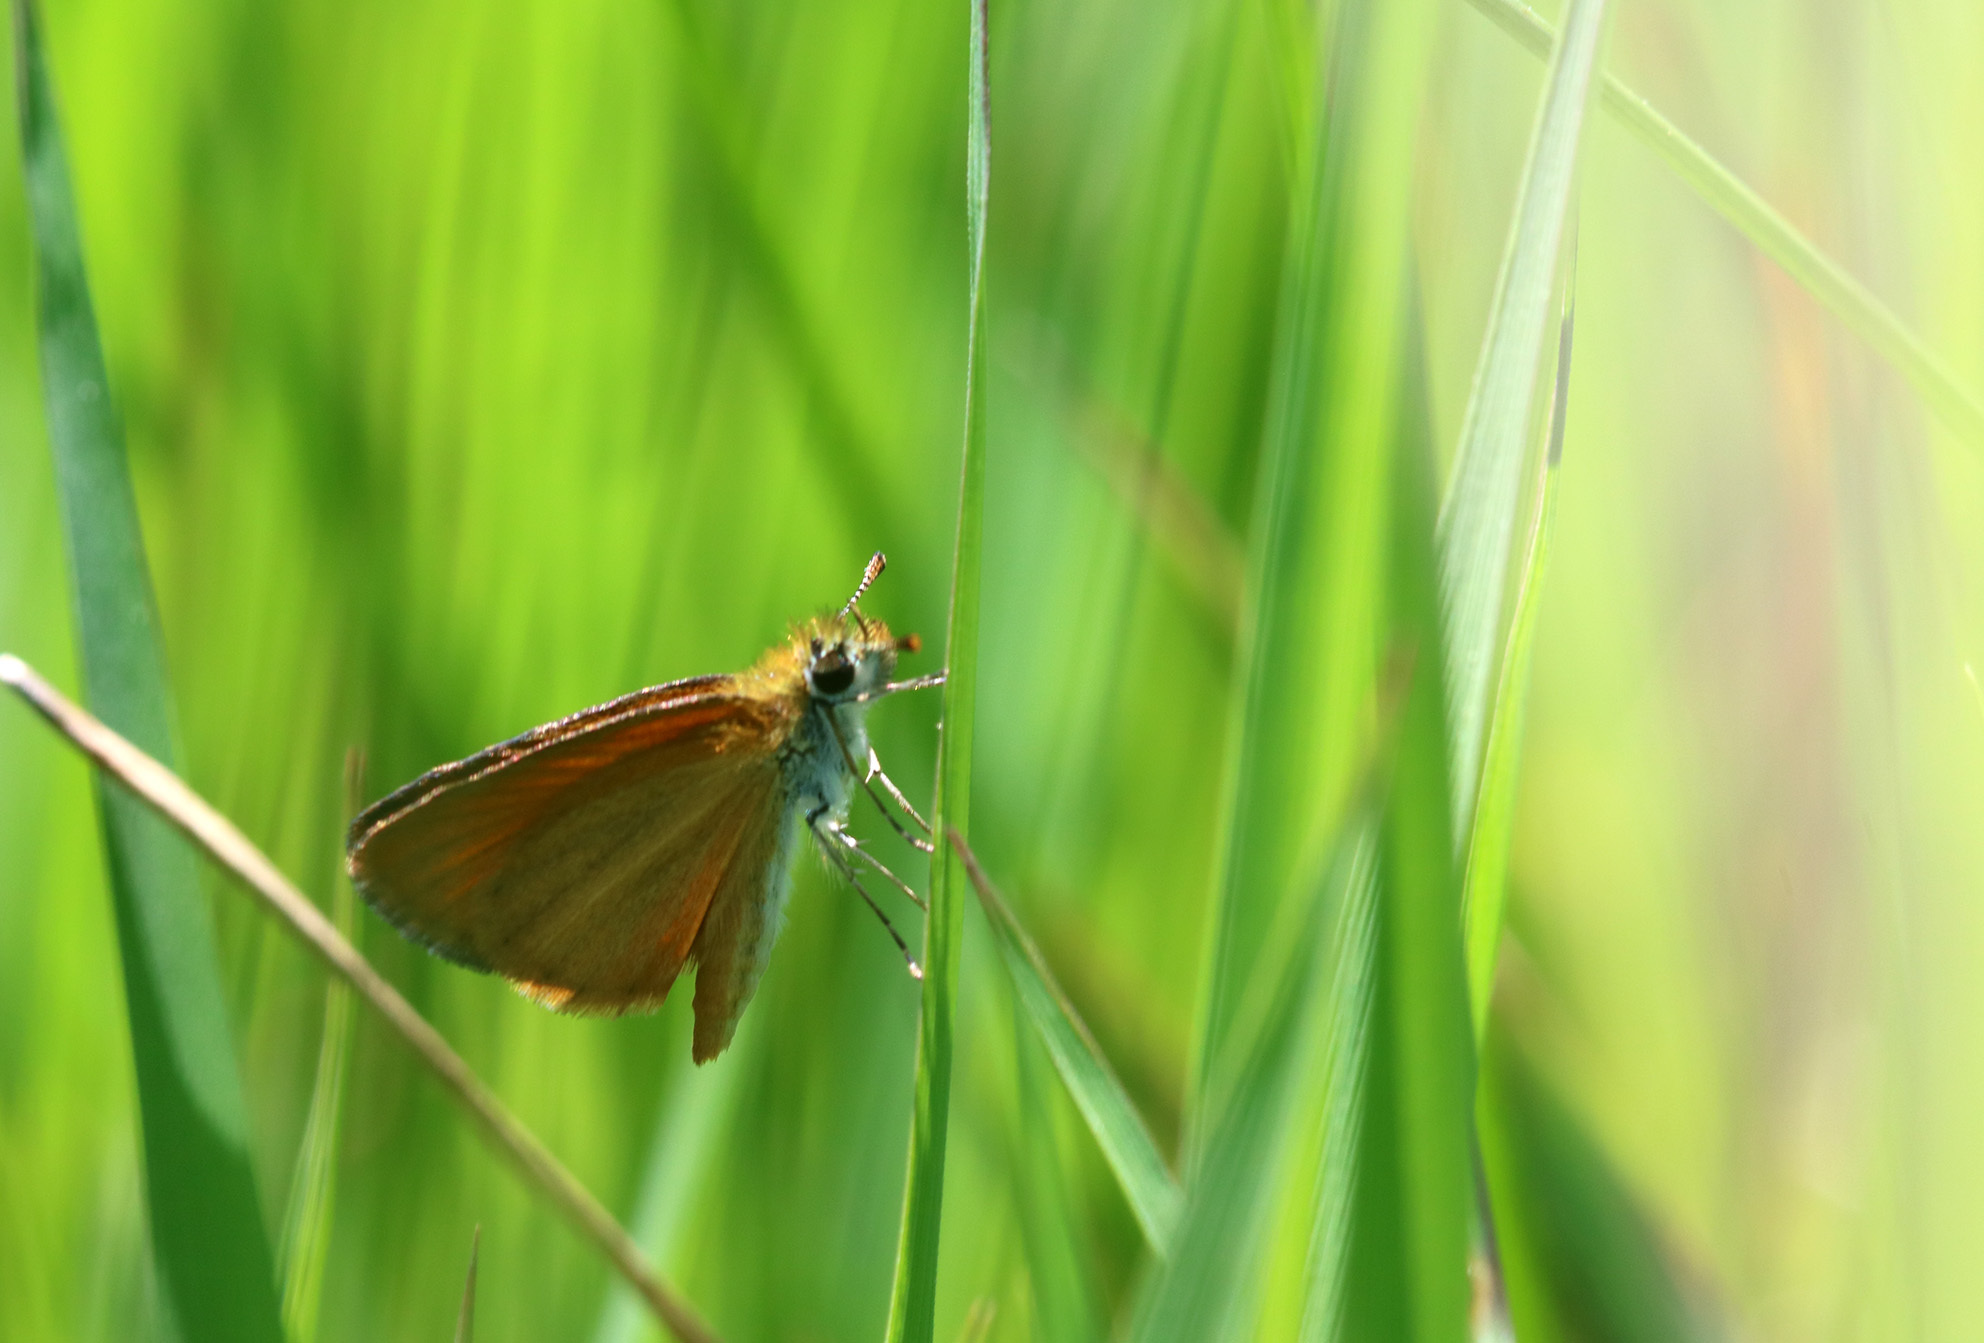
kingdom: Animalia
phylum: Arthropoda
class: Insecta
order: Lepidoptera
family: Hesperiidae
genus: Ancyloxypha
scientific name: Ancyloxypha nitedula
